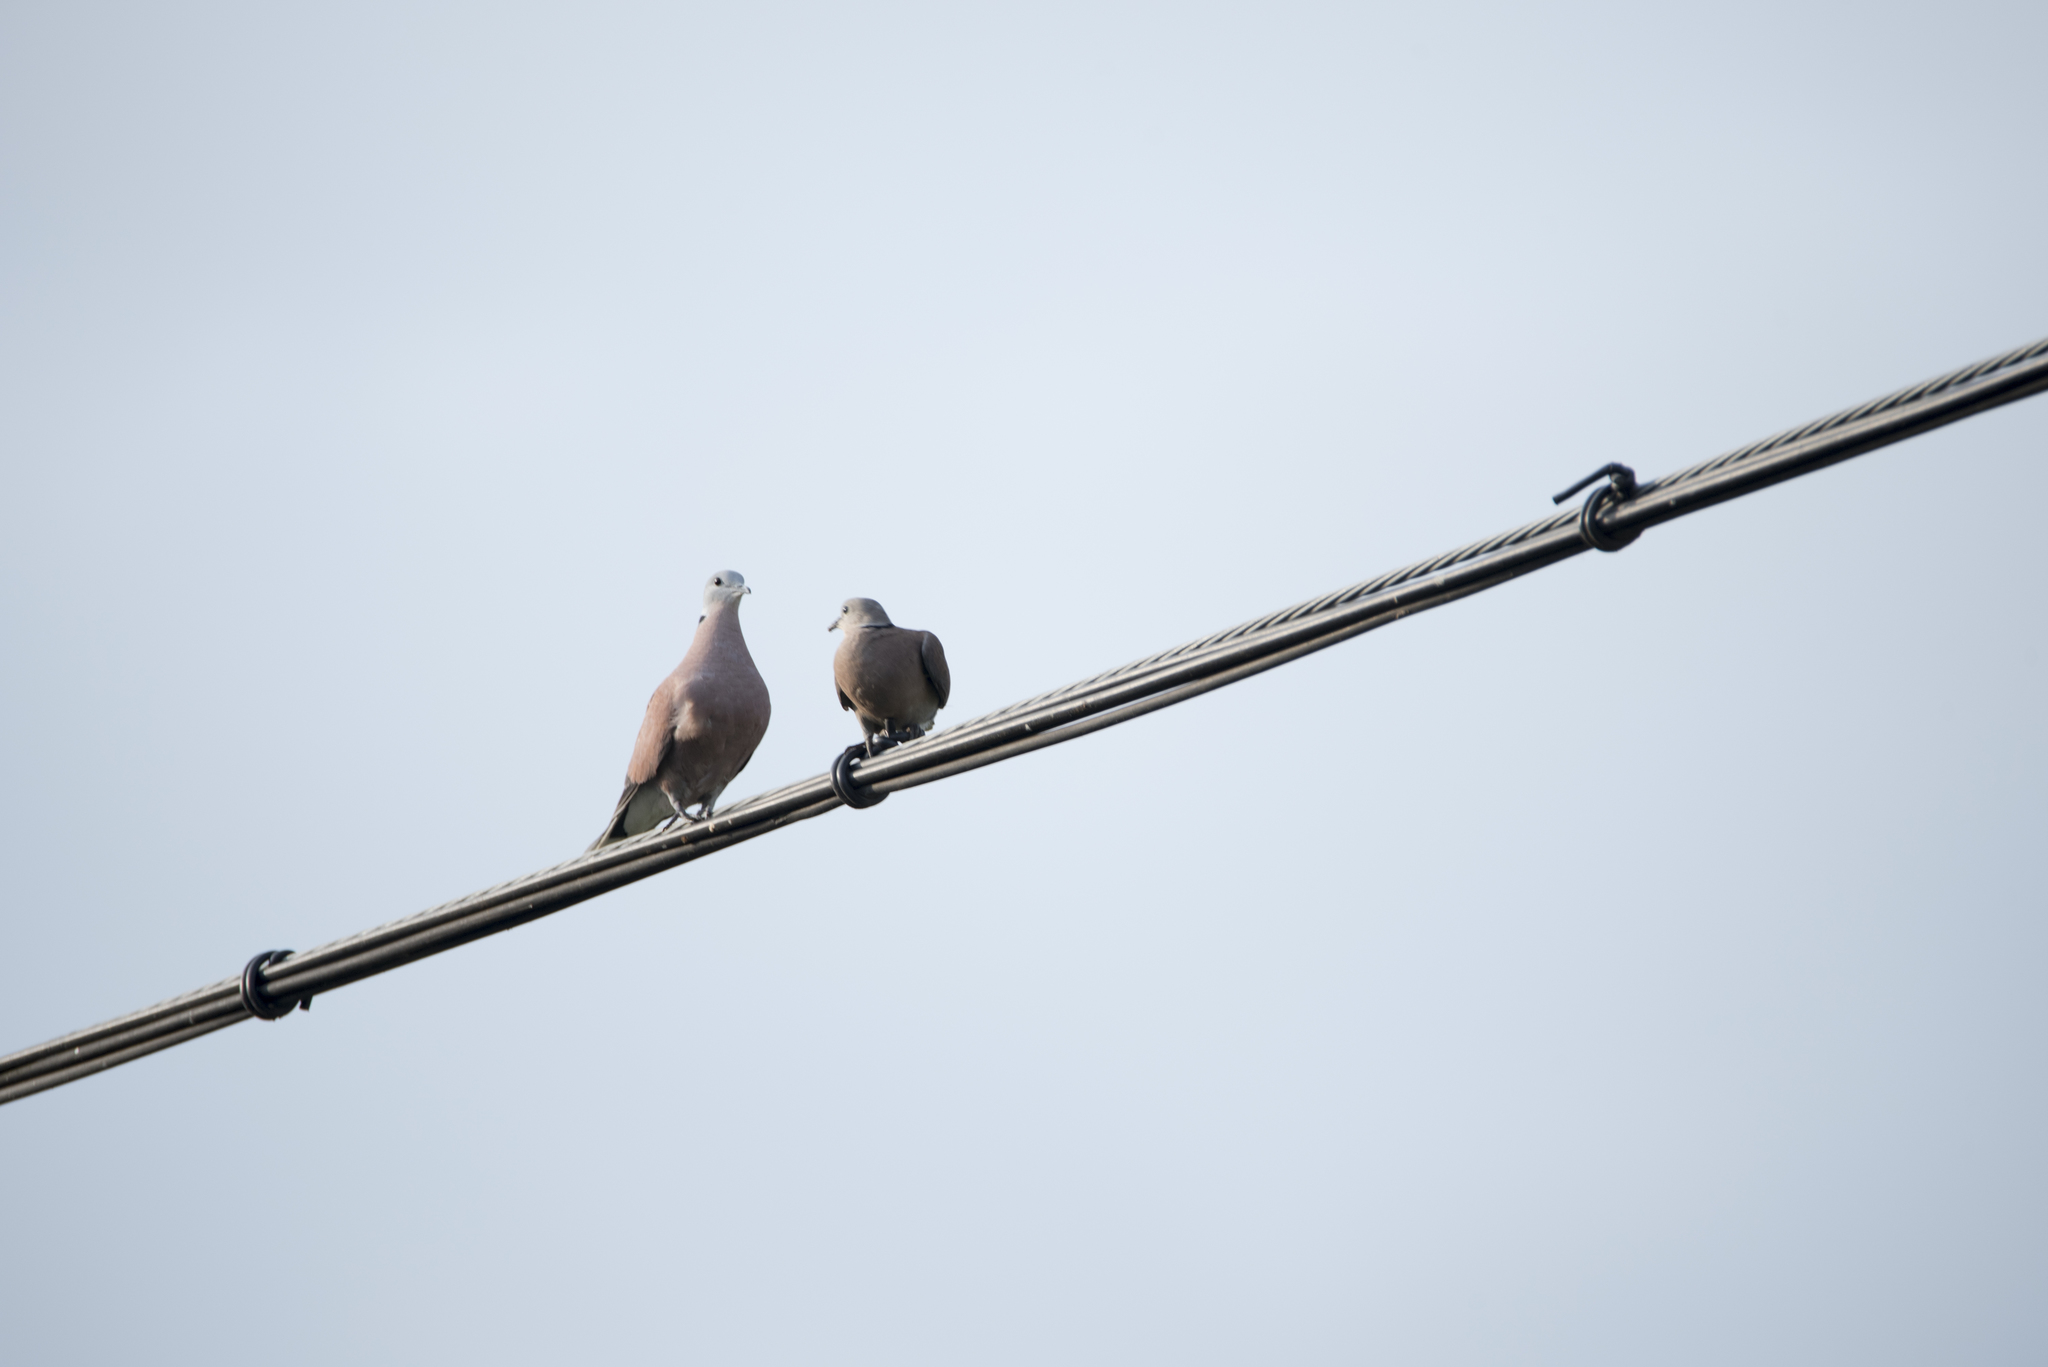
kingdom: Animalia
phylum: Chordata
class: Aves
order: Columbiformes
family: Columbidae
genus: Streptopelia
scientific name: Streptopelia tranquebarica
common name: Red turtle dove
